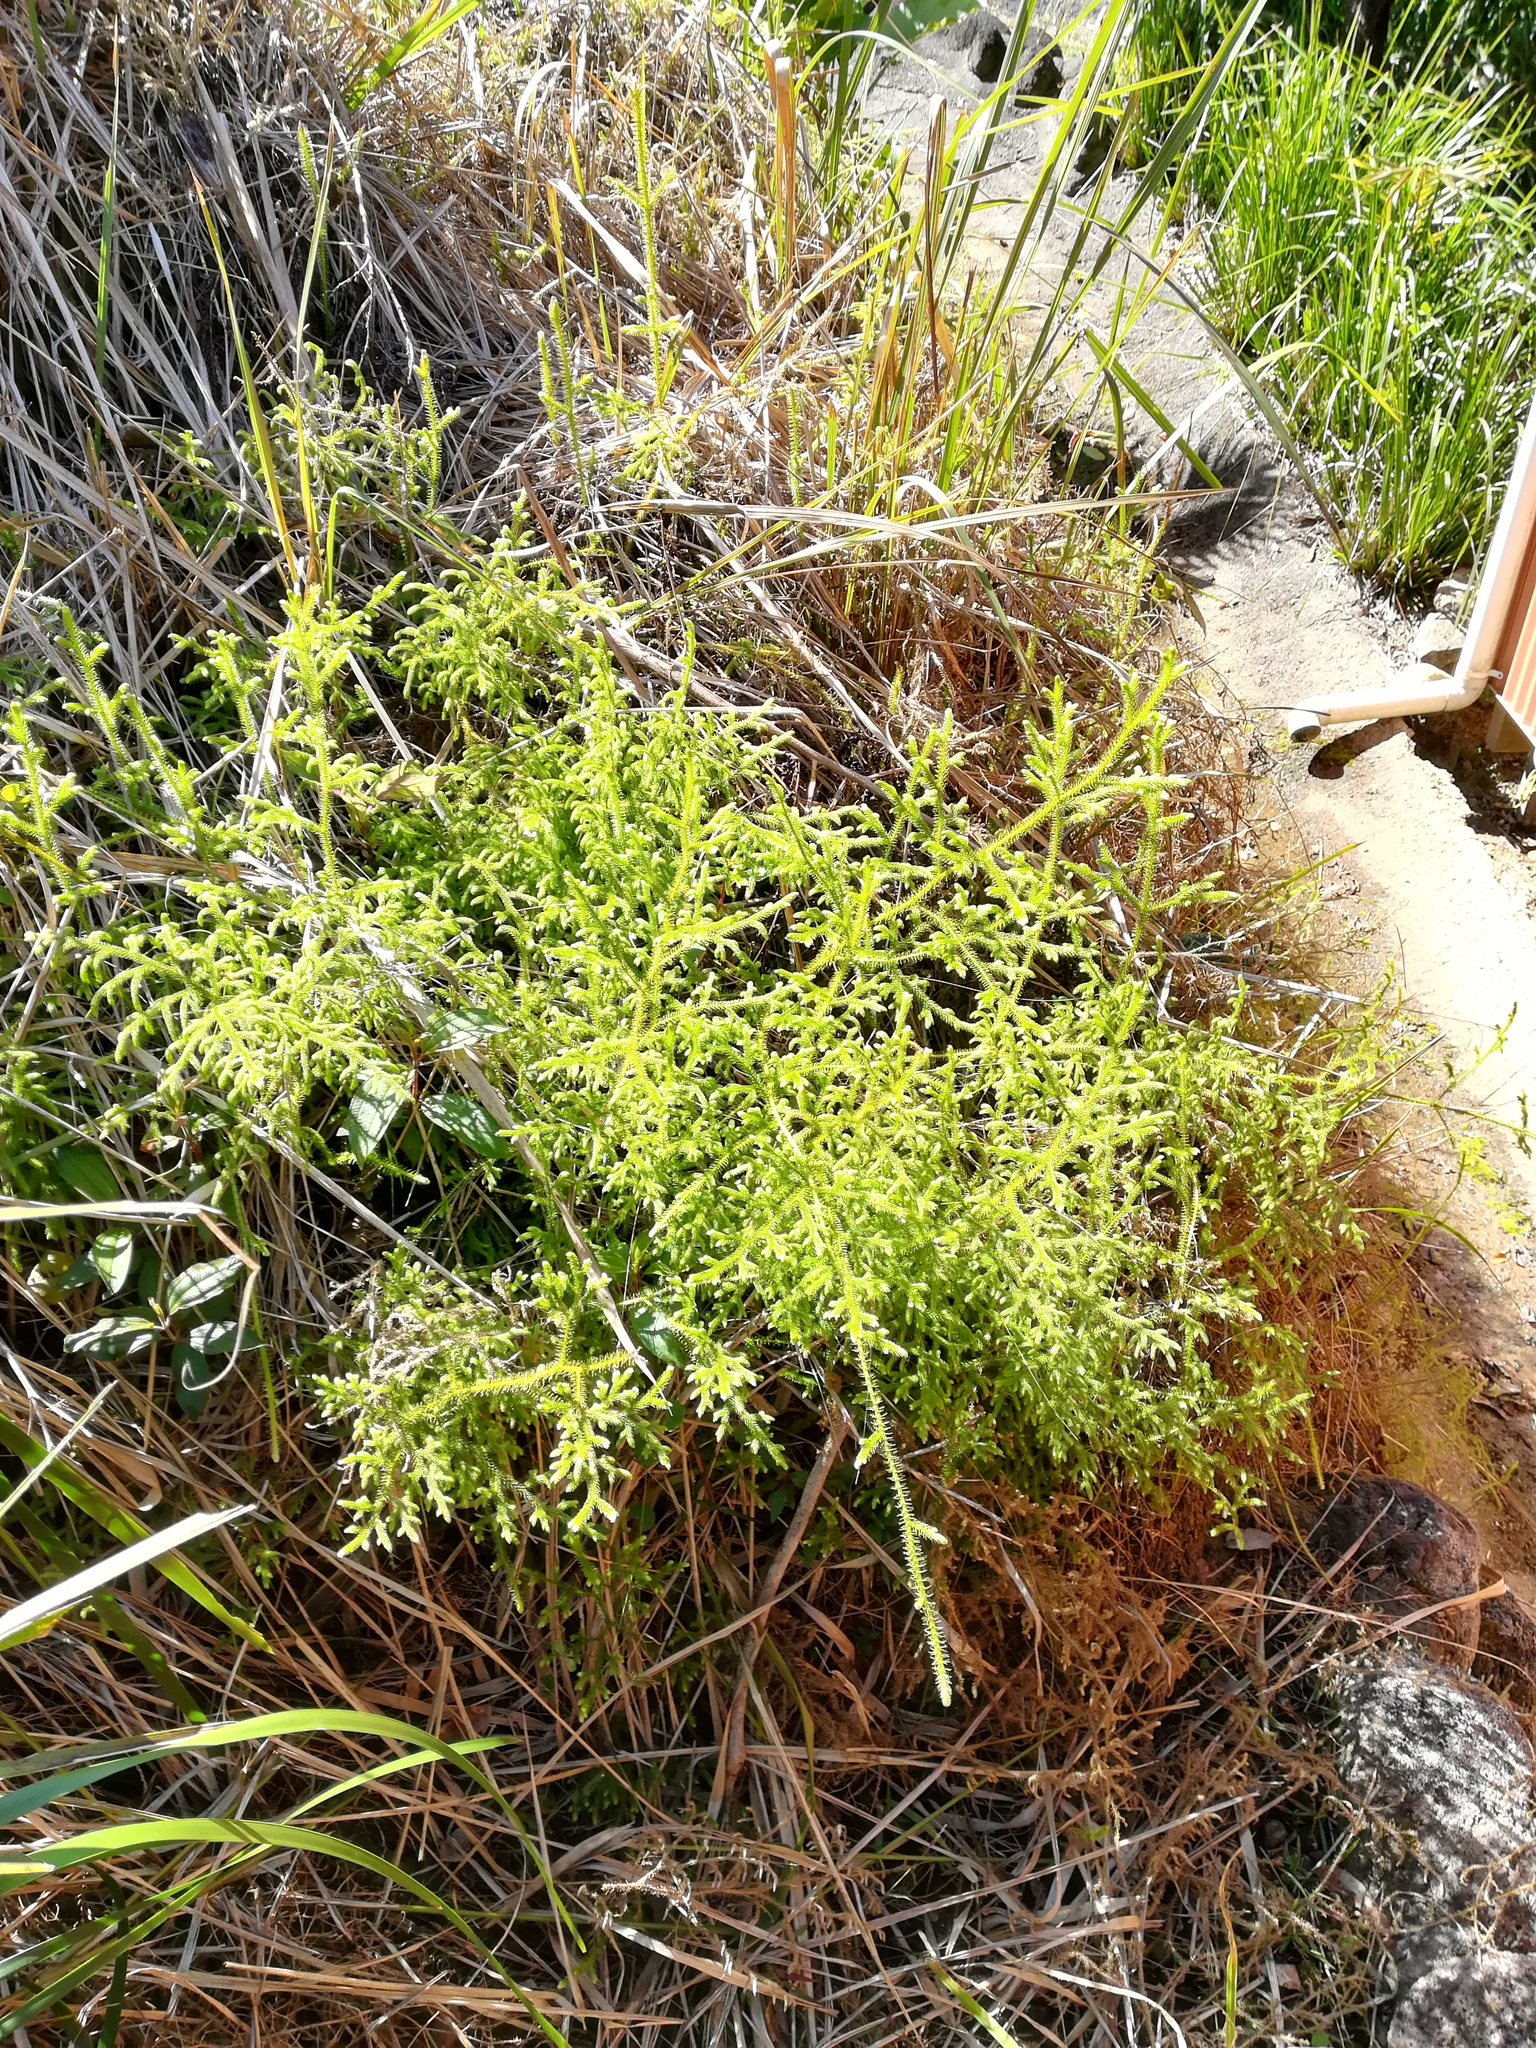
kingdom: Plantae
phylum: Tracheophyta
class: Lycopodiopsida
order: Lycopodiales
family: Lycopodiaceae
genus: Palhinhaea
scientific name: Palhinhaea cernua
